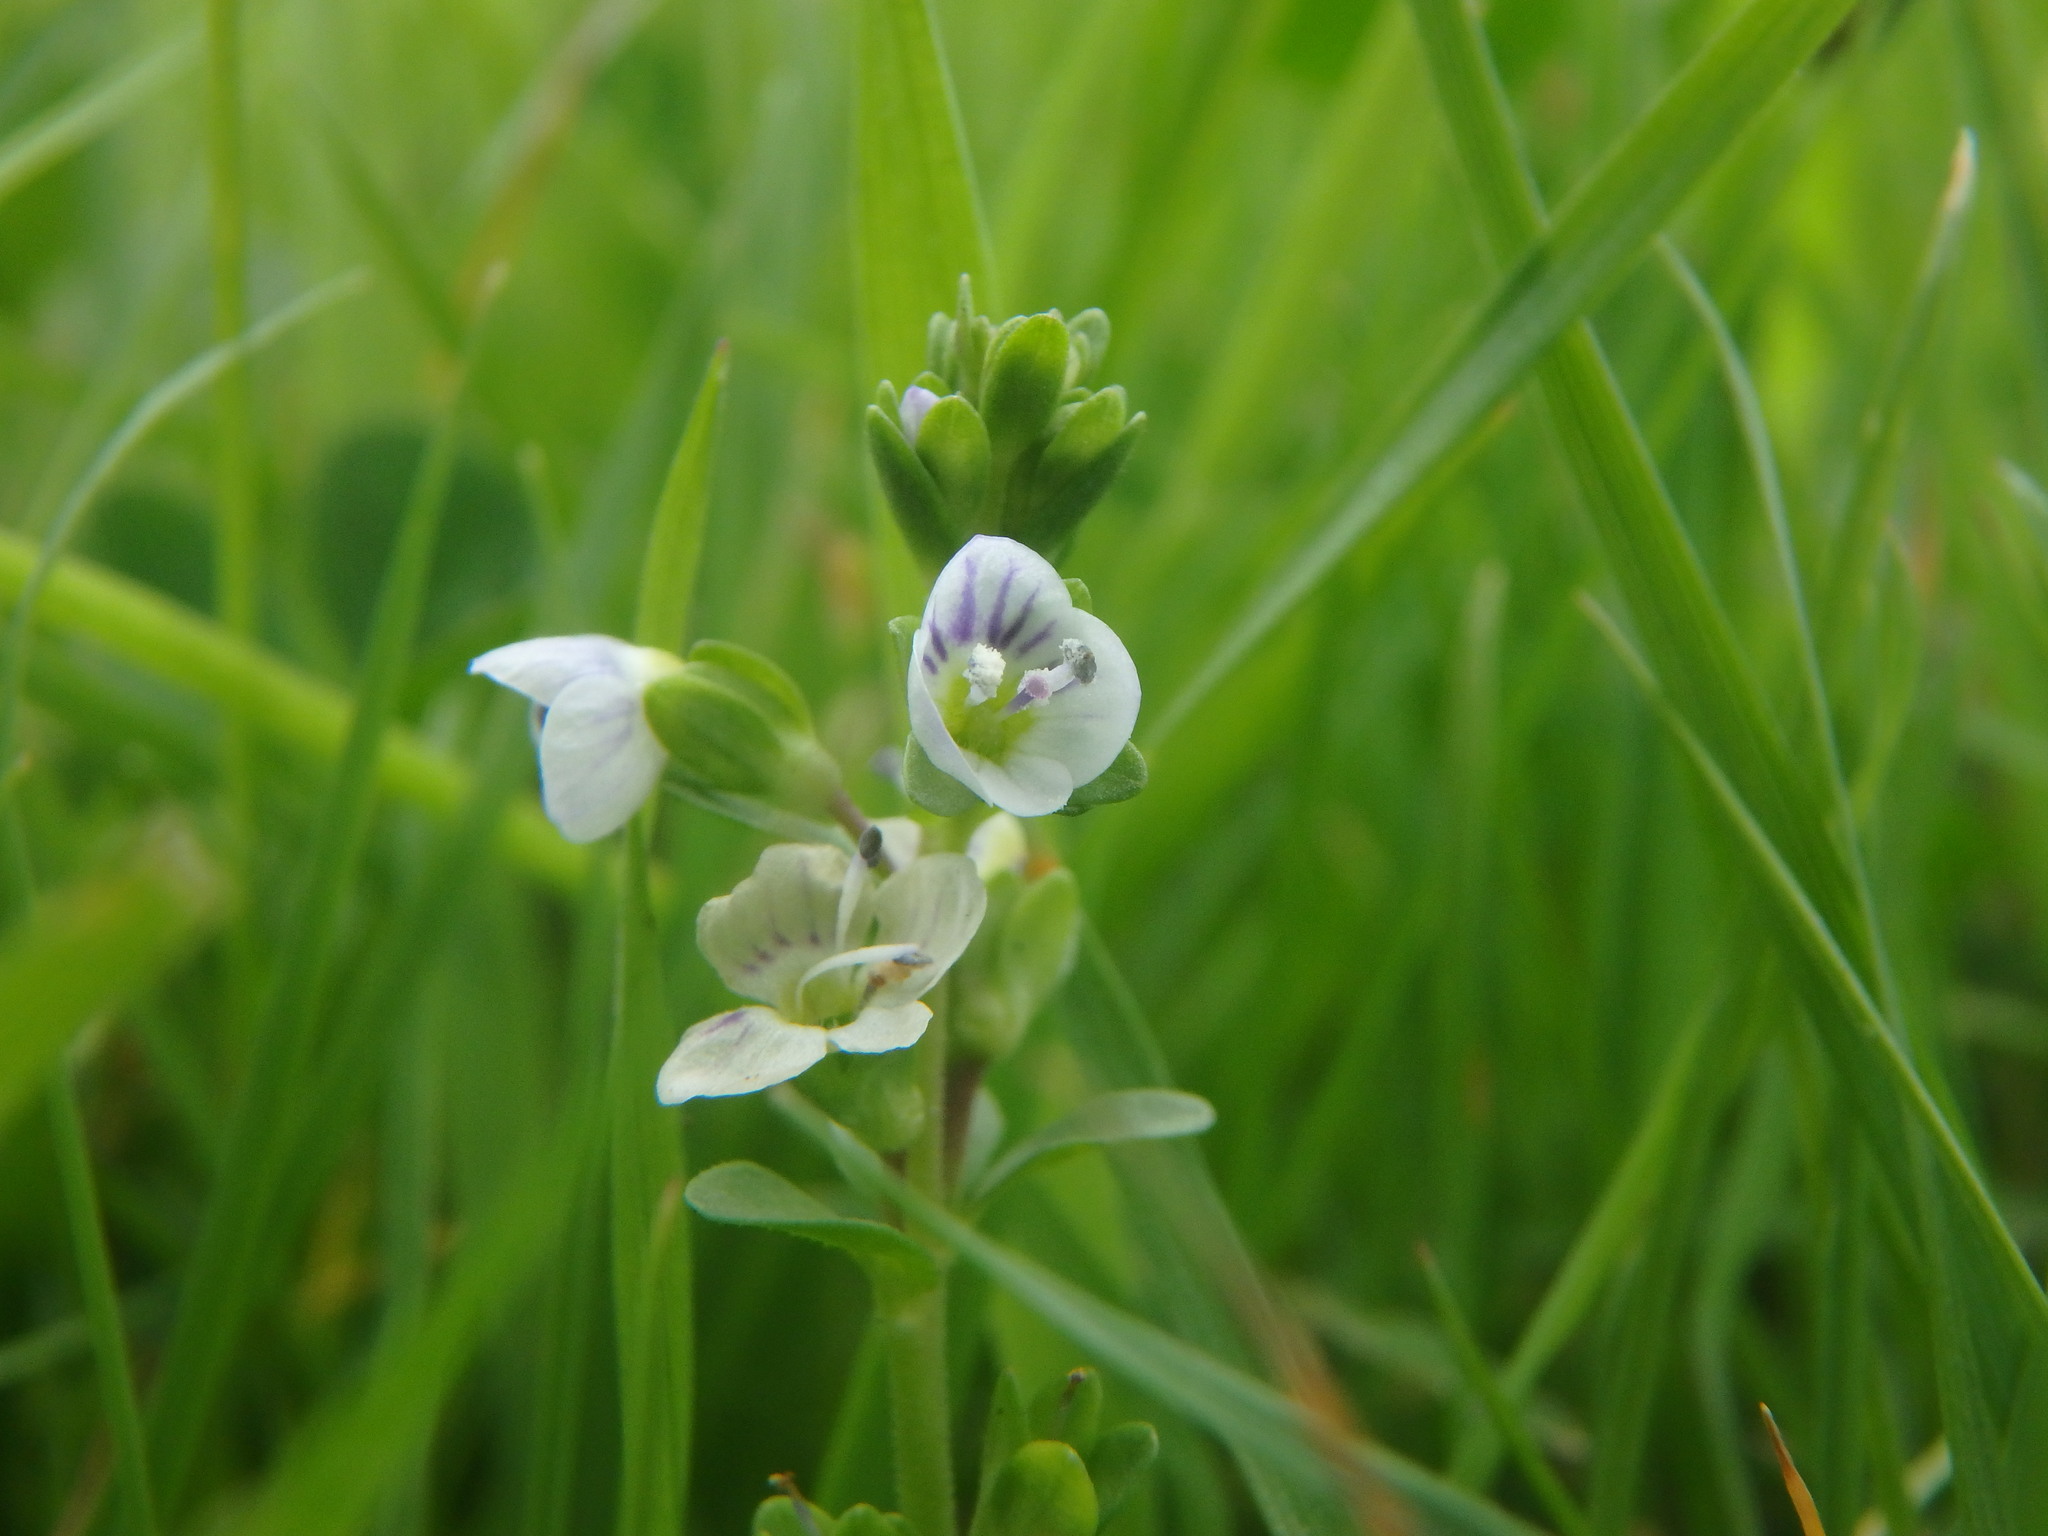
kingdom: Plantae
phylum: Tracheophyta
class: Magnoliopsida
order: Lamiales
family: Plantaginaceae
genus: Veronica
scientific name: Veronica serpyllifolia
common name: Thyme-leaved speedwell
